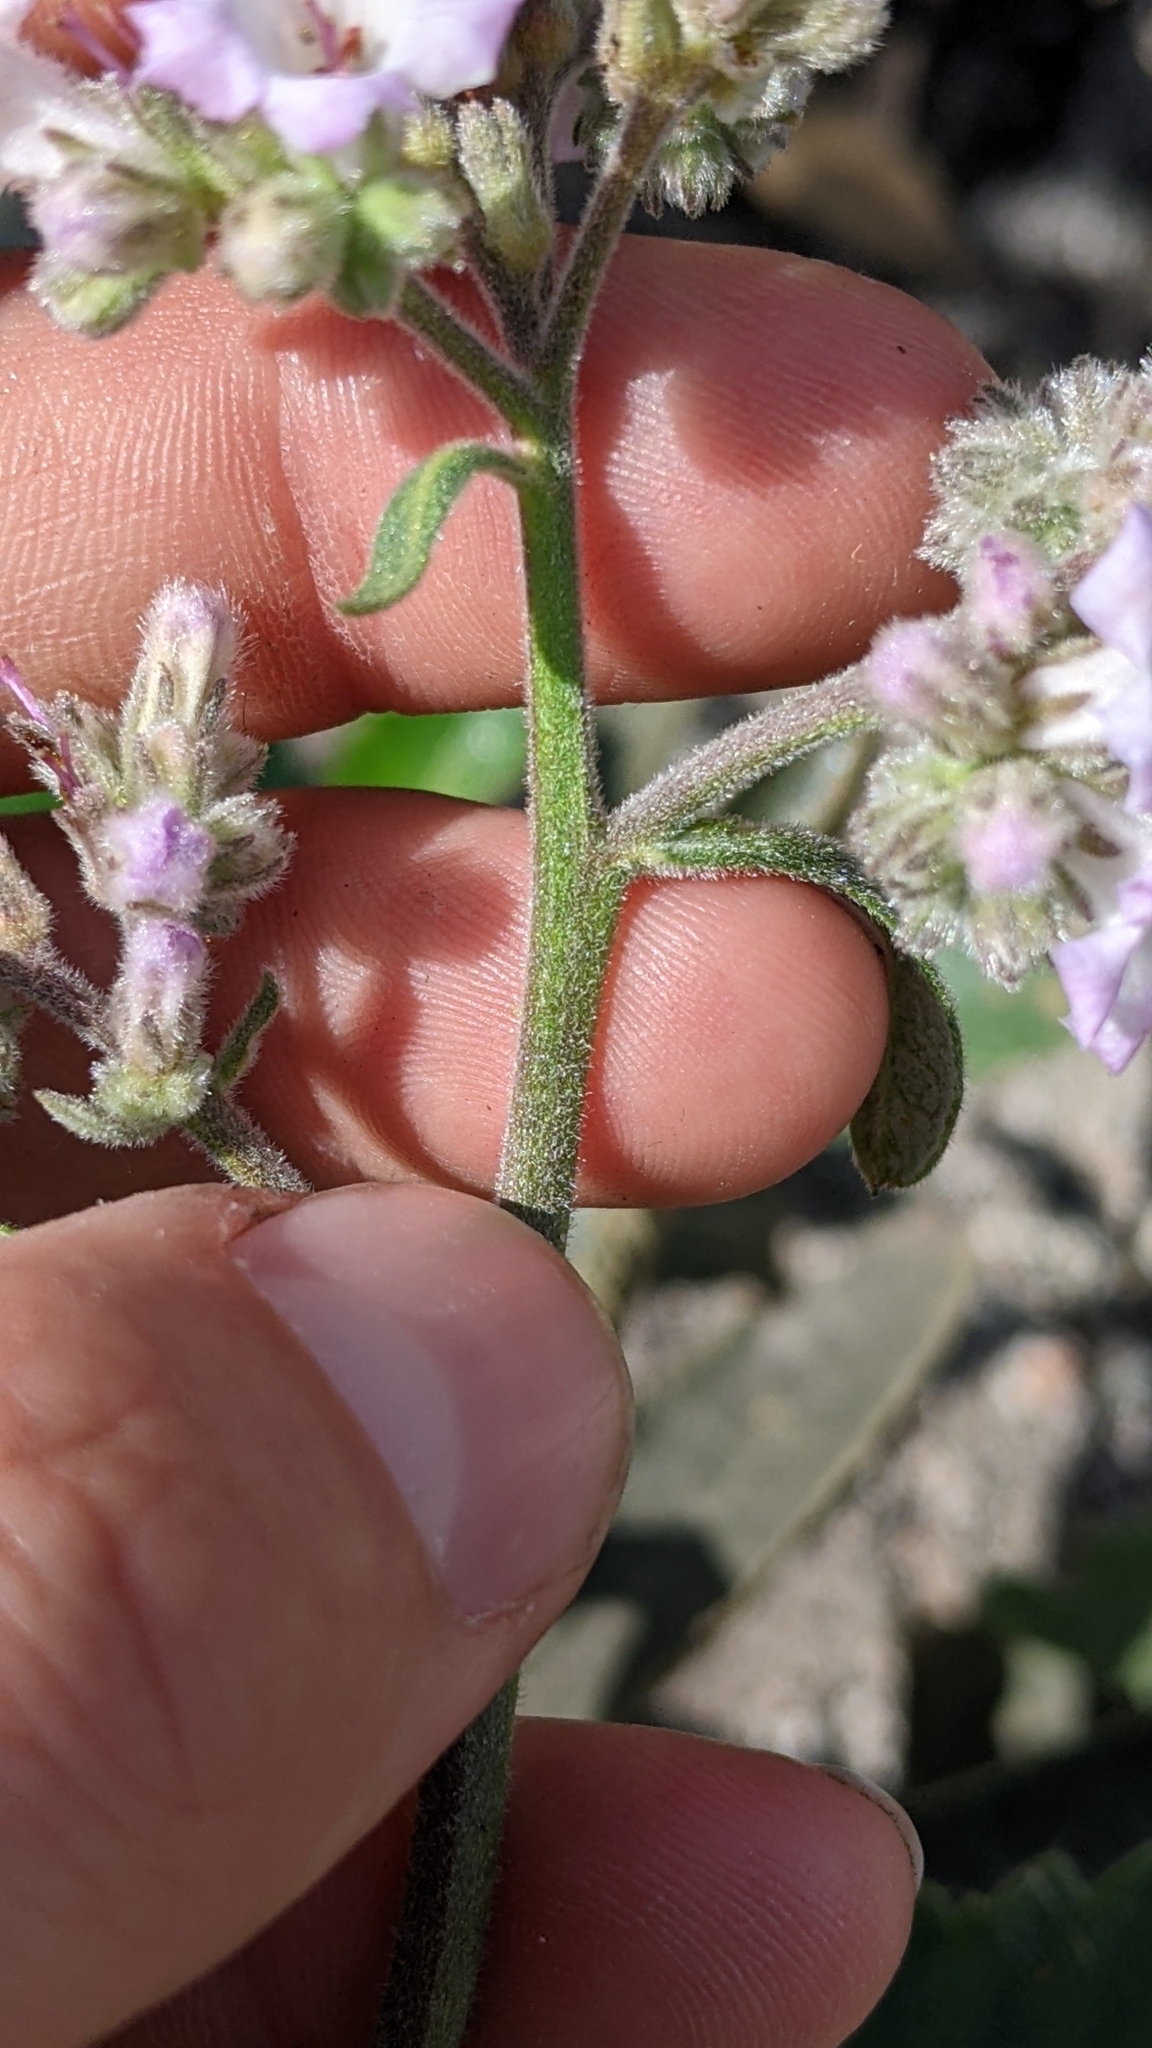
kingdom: Plantae
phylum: Tracheophyta
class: Magnoliopsida
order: Boraginales
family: Namaceae
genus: Eriodictyon
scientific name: Eriodictyon crassifolium
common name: Thick-leaf yerba-santa
